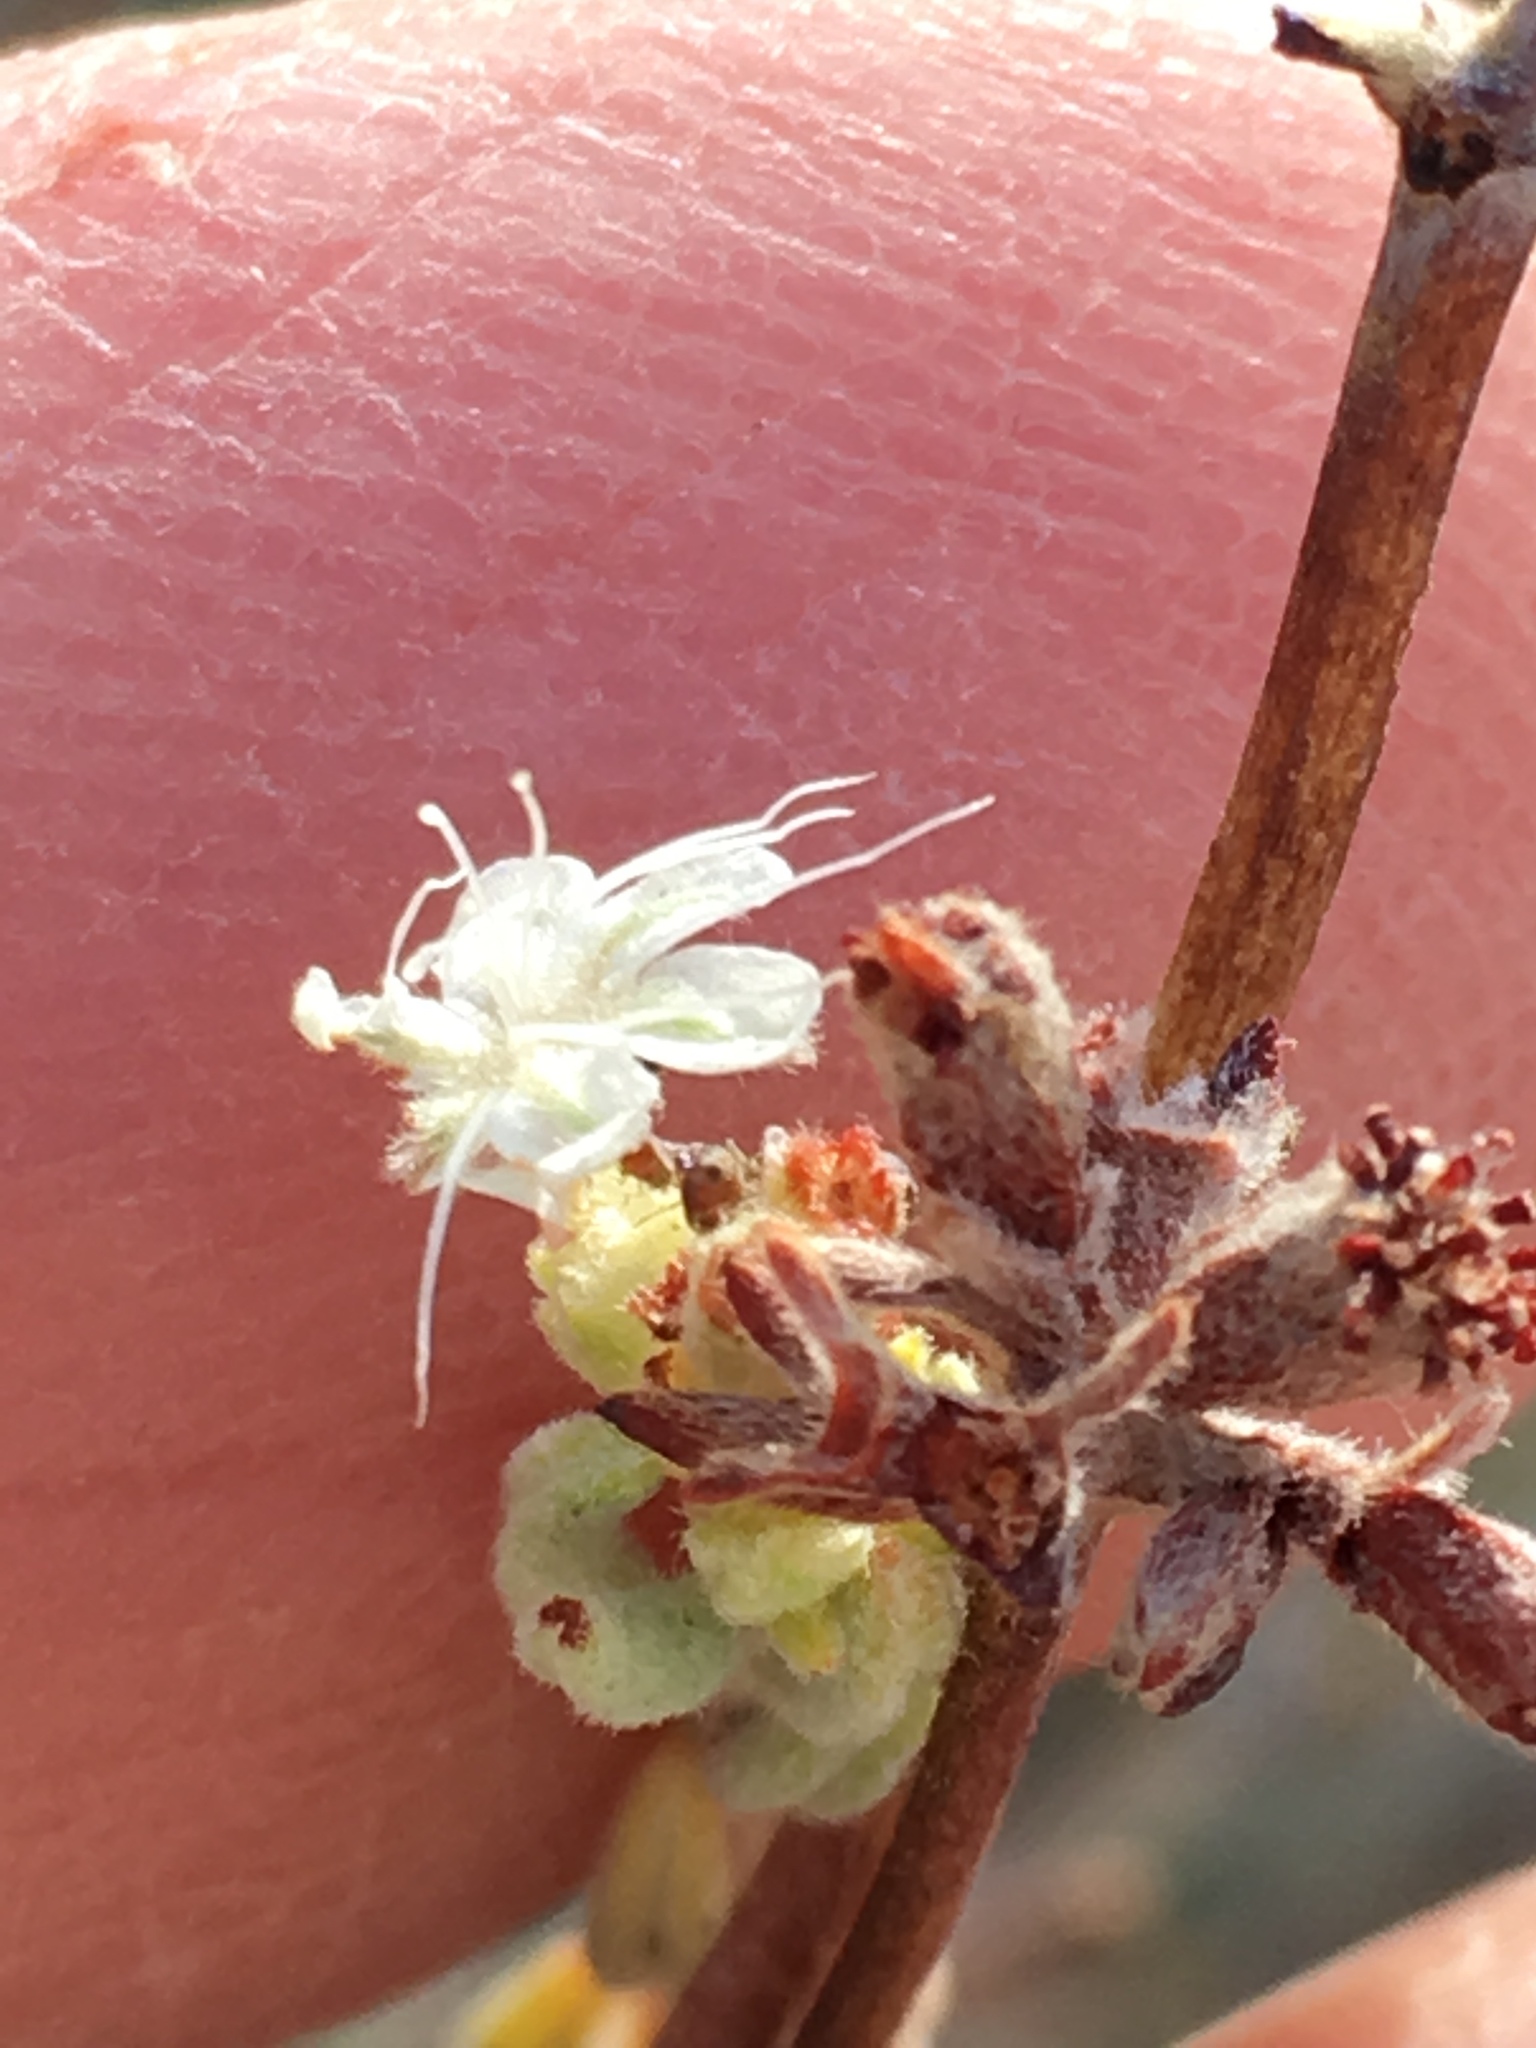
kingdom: Plantae
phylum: Tracheophyta
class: Magnoliopsida
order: Caryophyllales
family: Polygonaceae
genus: Eriogonum
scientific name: Eriogonum fasciculatum
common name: California wild buckwheat
